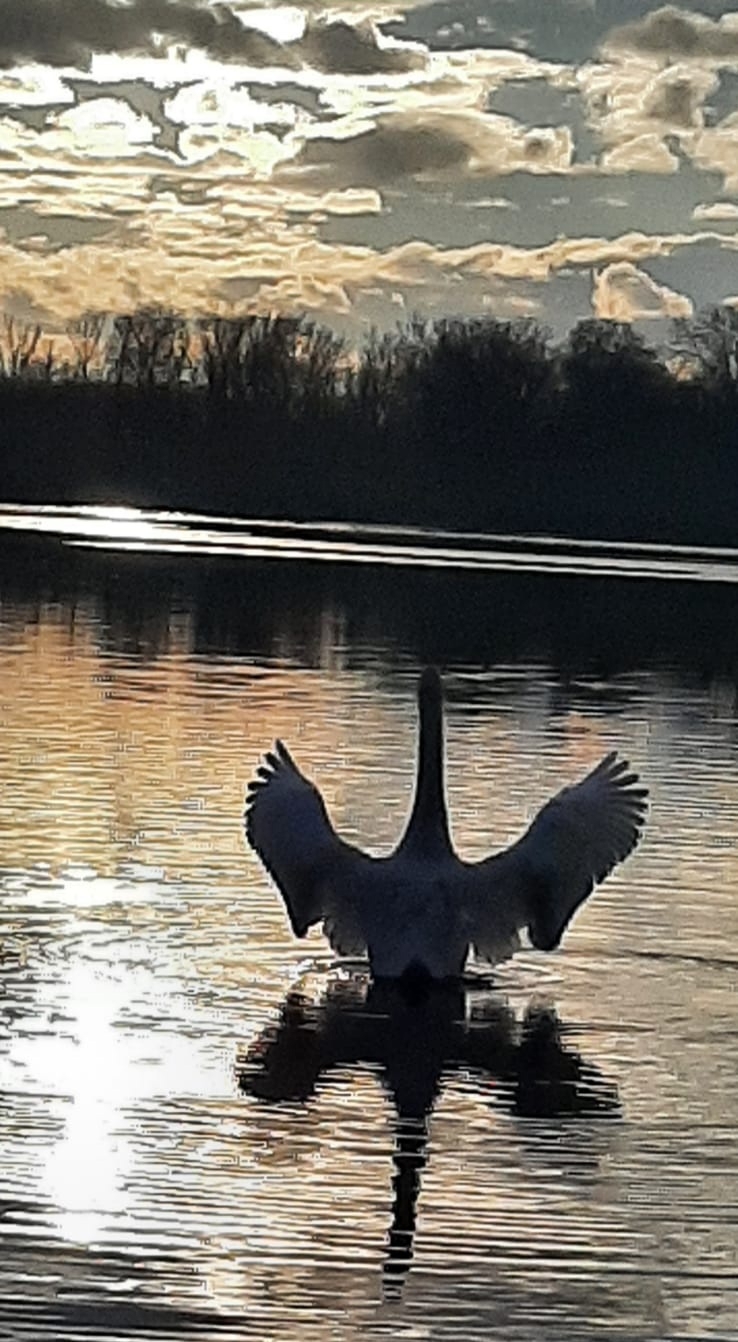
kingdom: Animalia
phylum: Chordata
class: Aves
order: Anseriformes
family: Anatidae
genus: Cygnus
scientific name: Cygnus olor
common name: Mute swan
